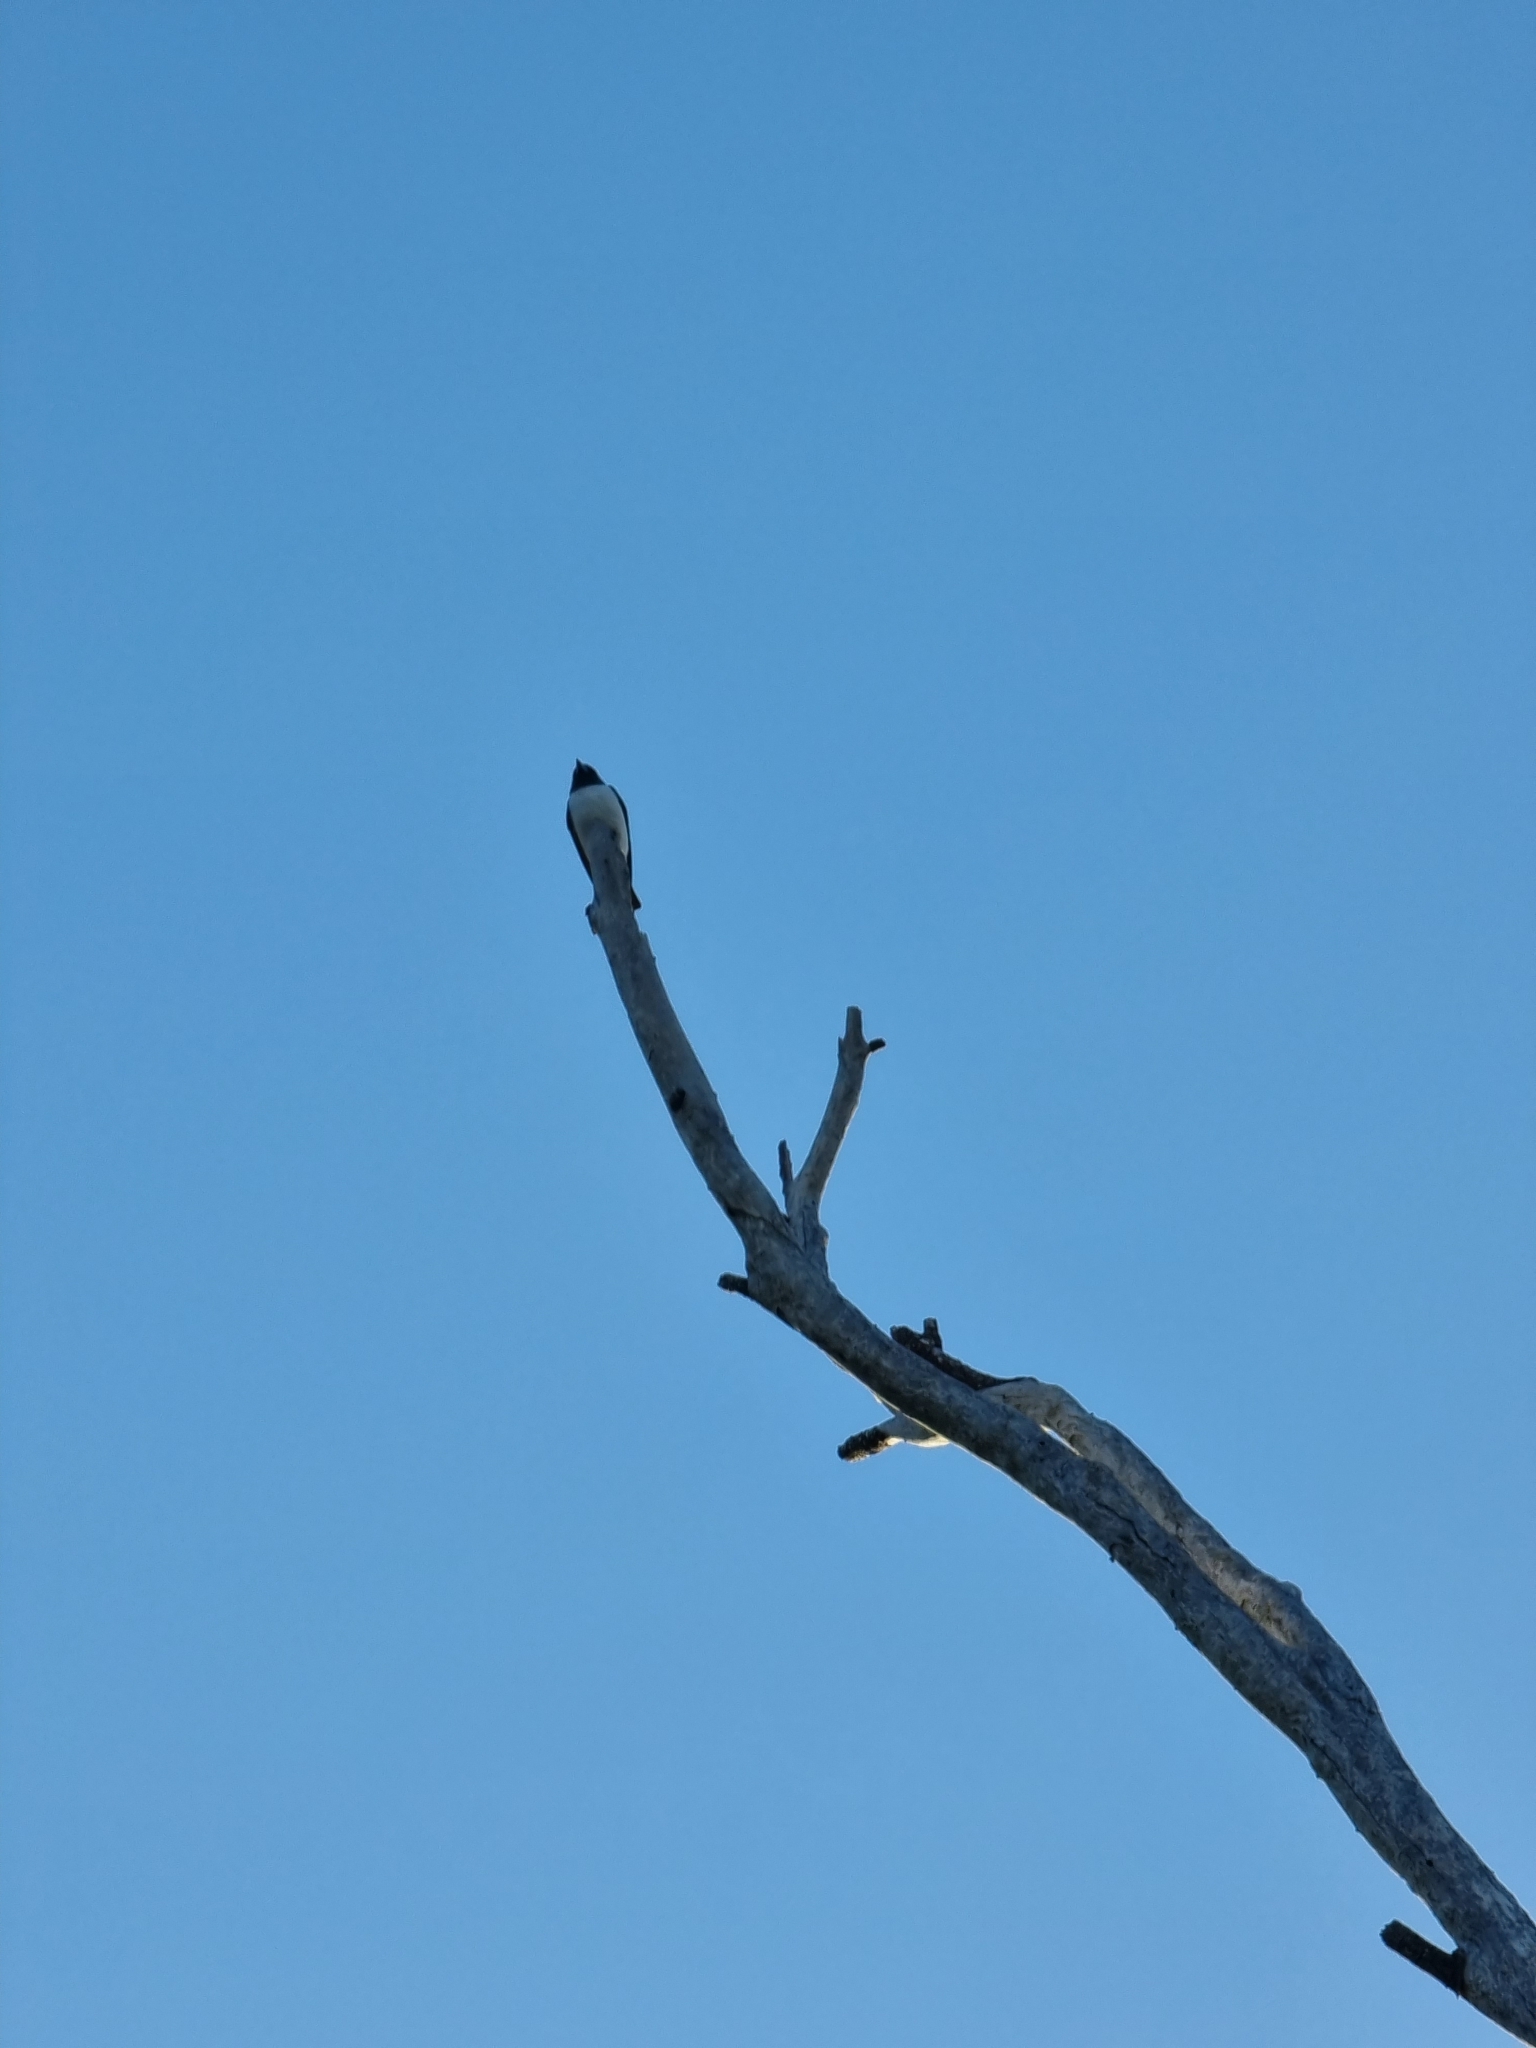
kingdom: Animalia
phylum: Chordata
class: Aves
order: Passeriformes
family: Artamidae
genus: Artamus
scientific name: Artamus leucoryn
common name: White-breasted woodswallow
